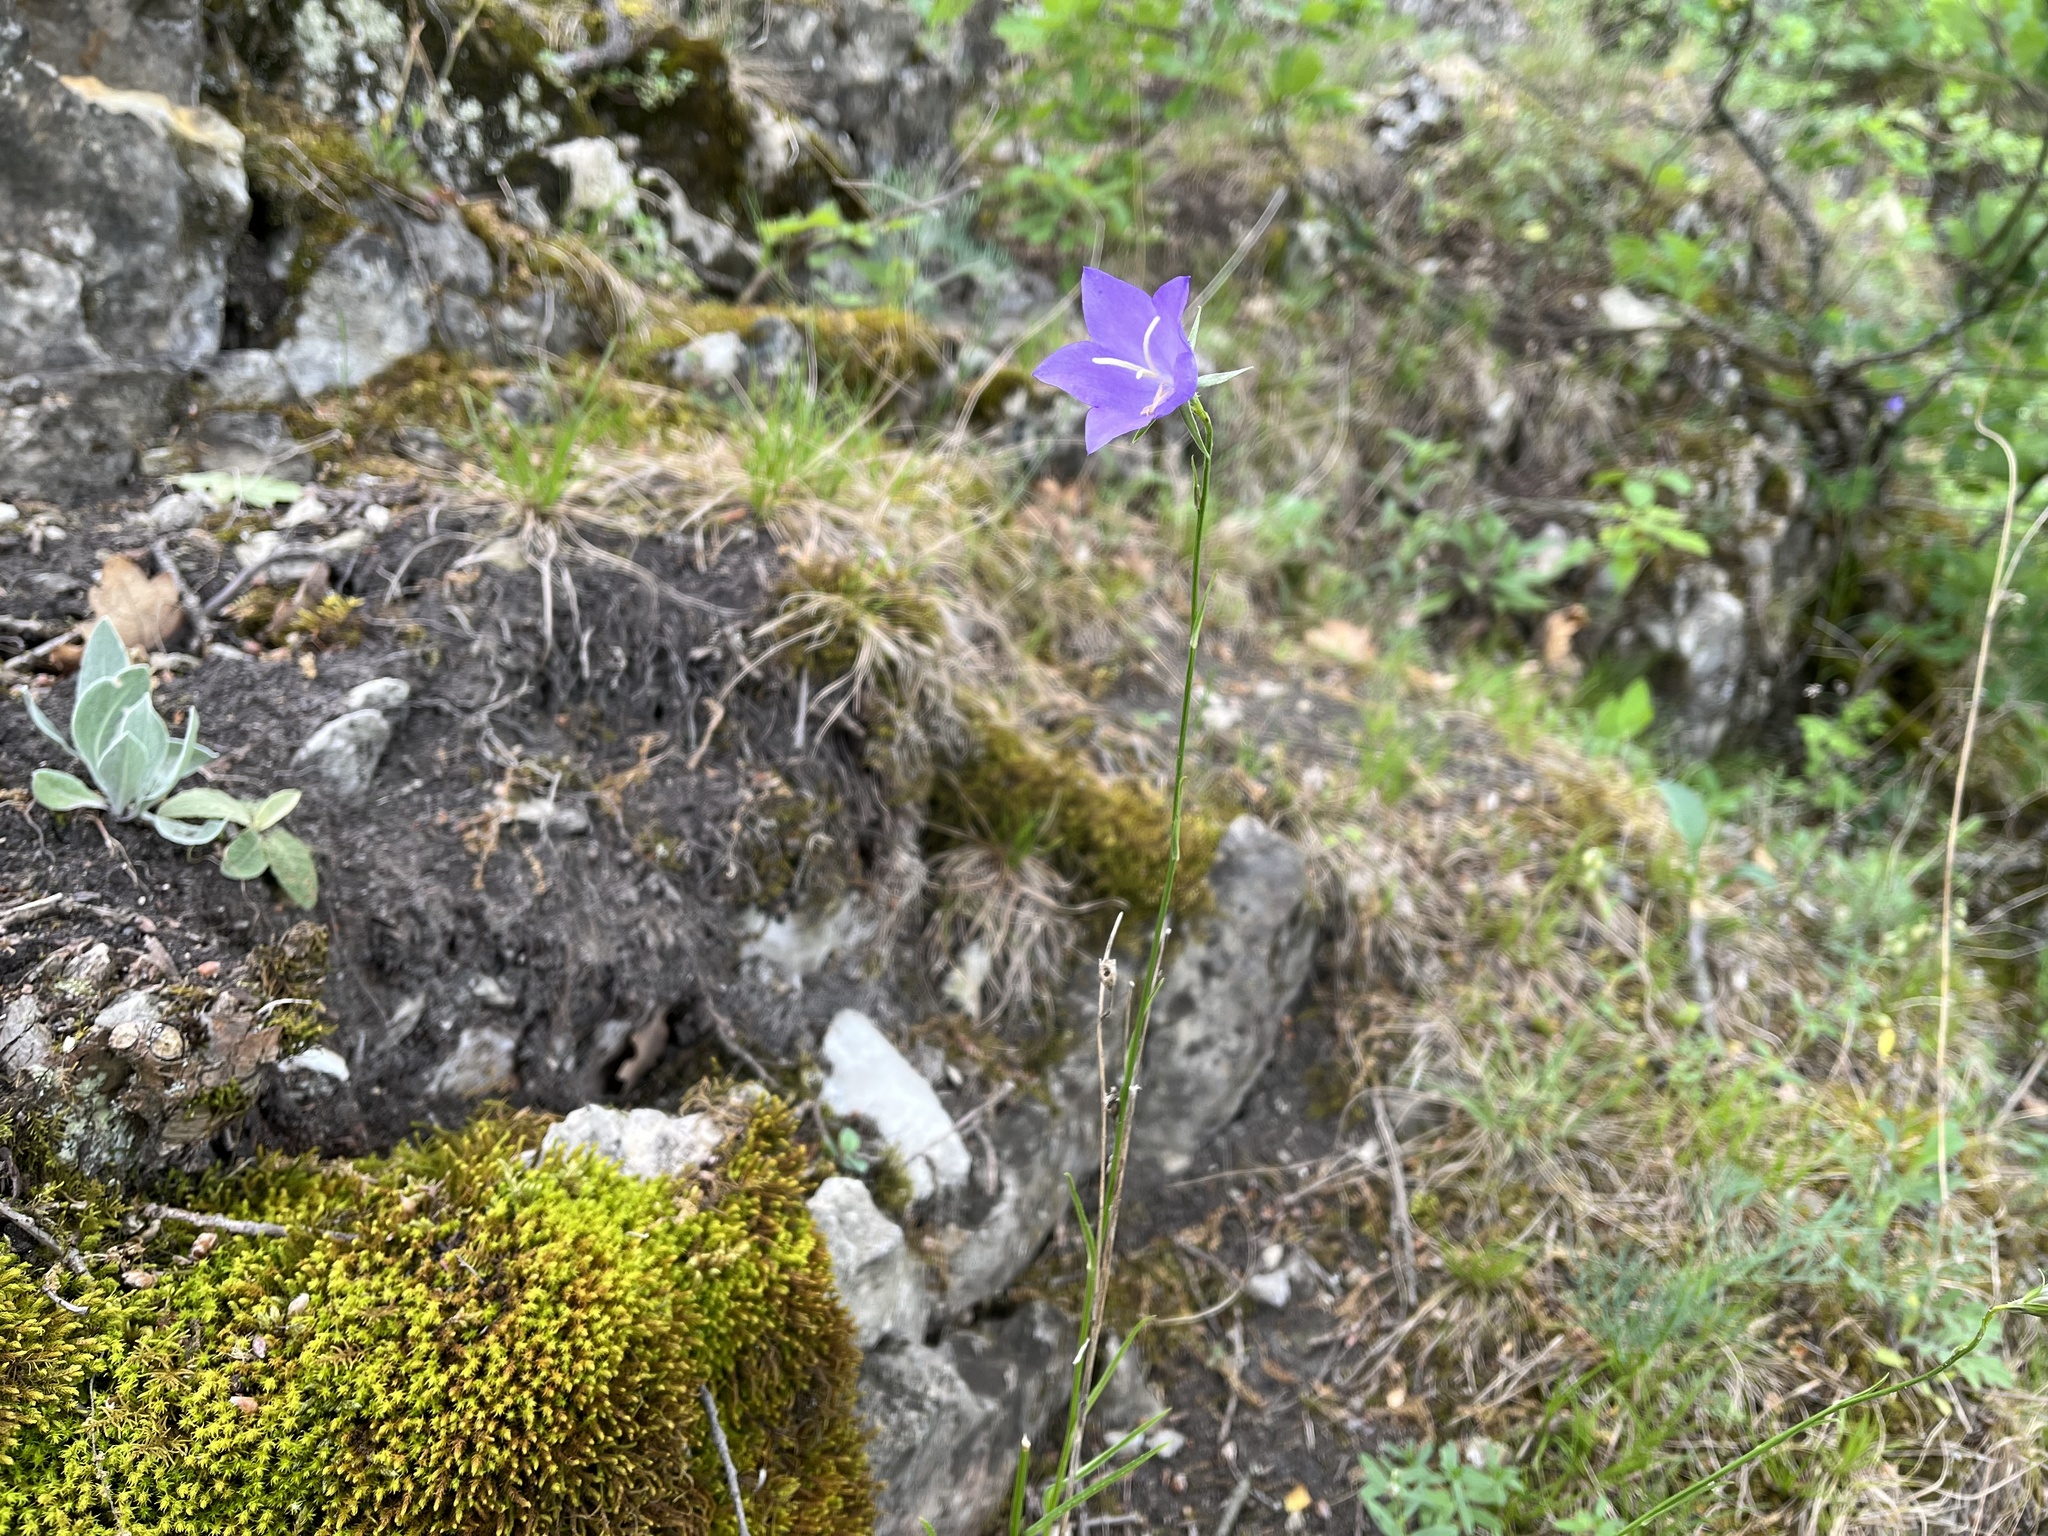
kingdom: Plantae
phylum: Tracheophyta
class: Magnoliopsida
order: Asterales
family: Campanulaceae
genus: Campanula
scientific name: Campanula persicifolia
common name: Peach-leaved bellflower
